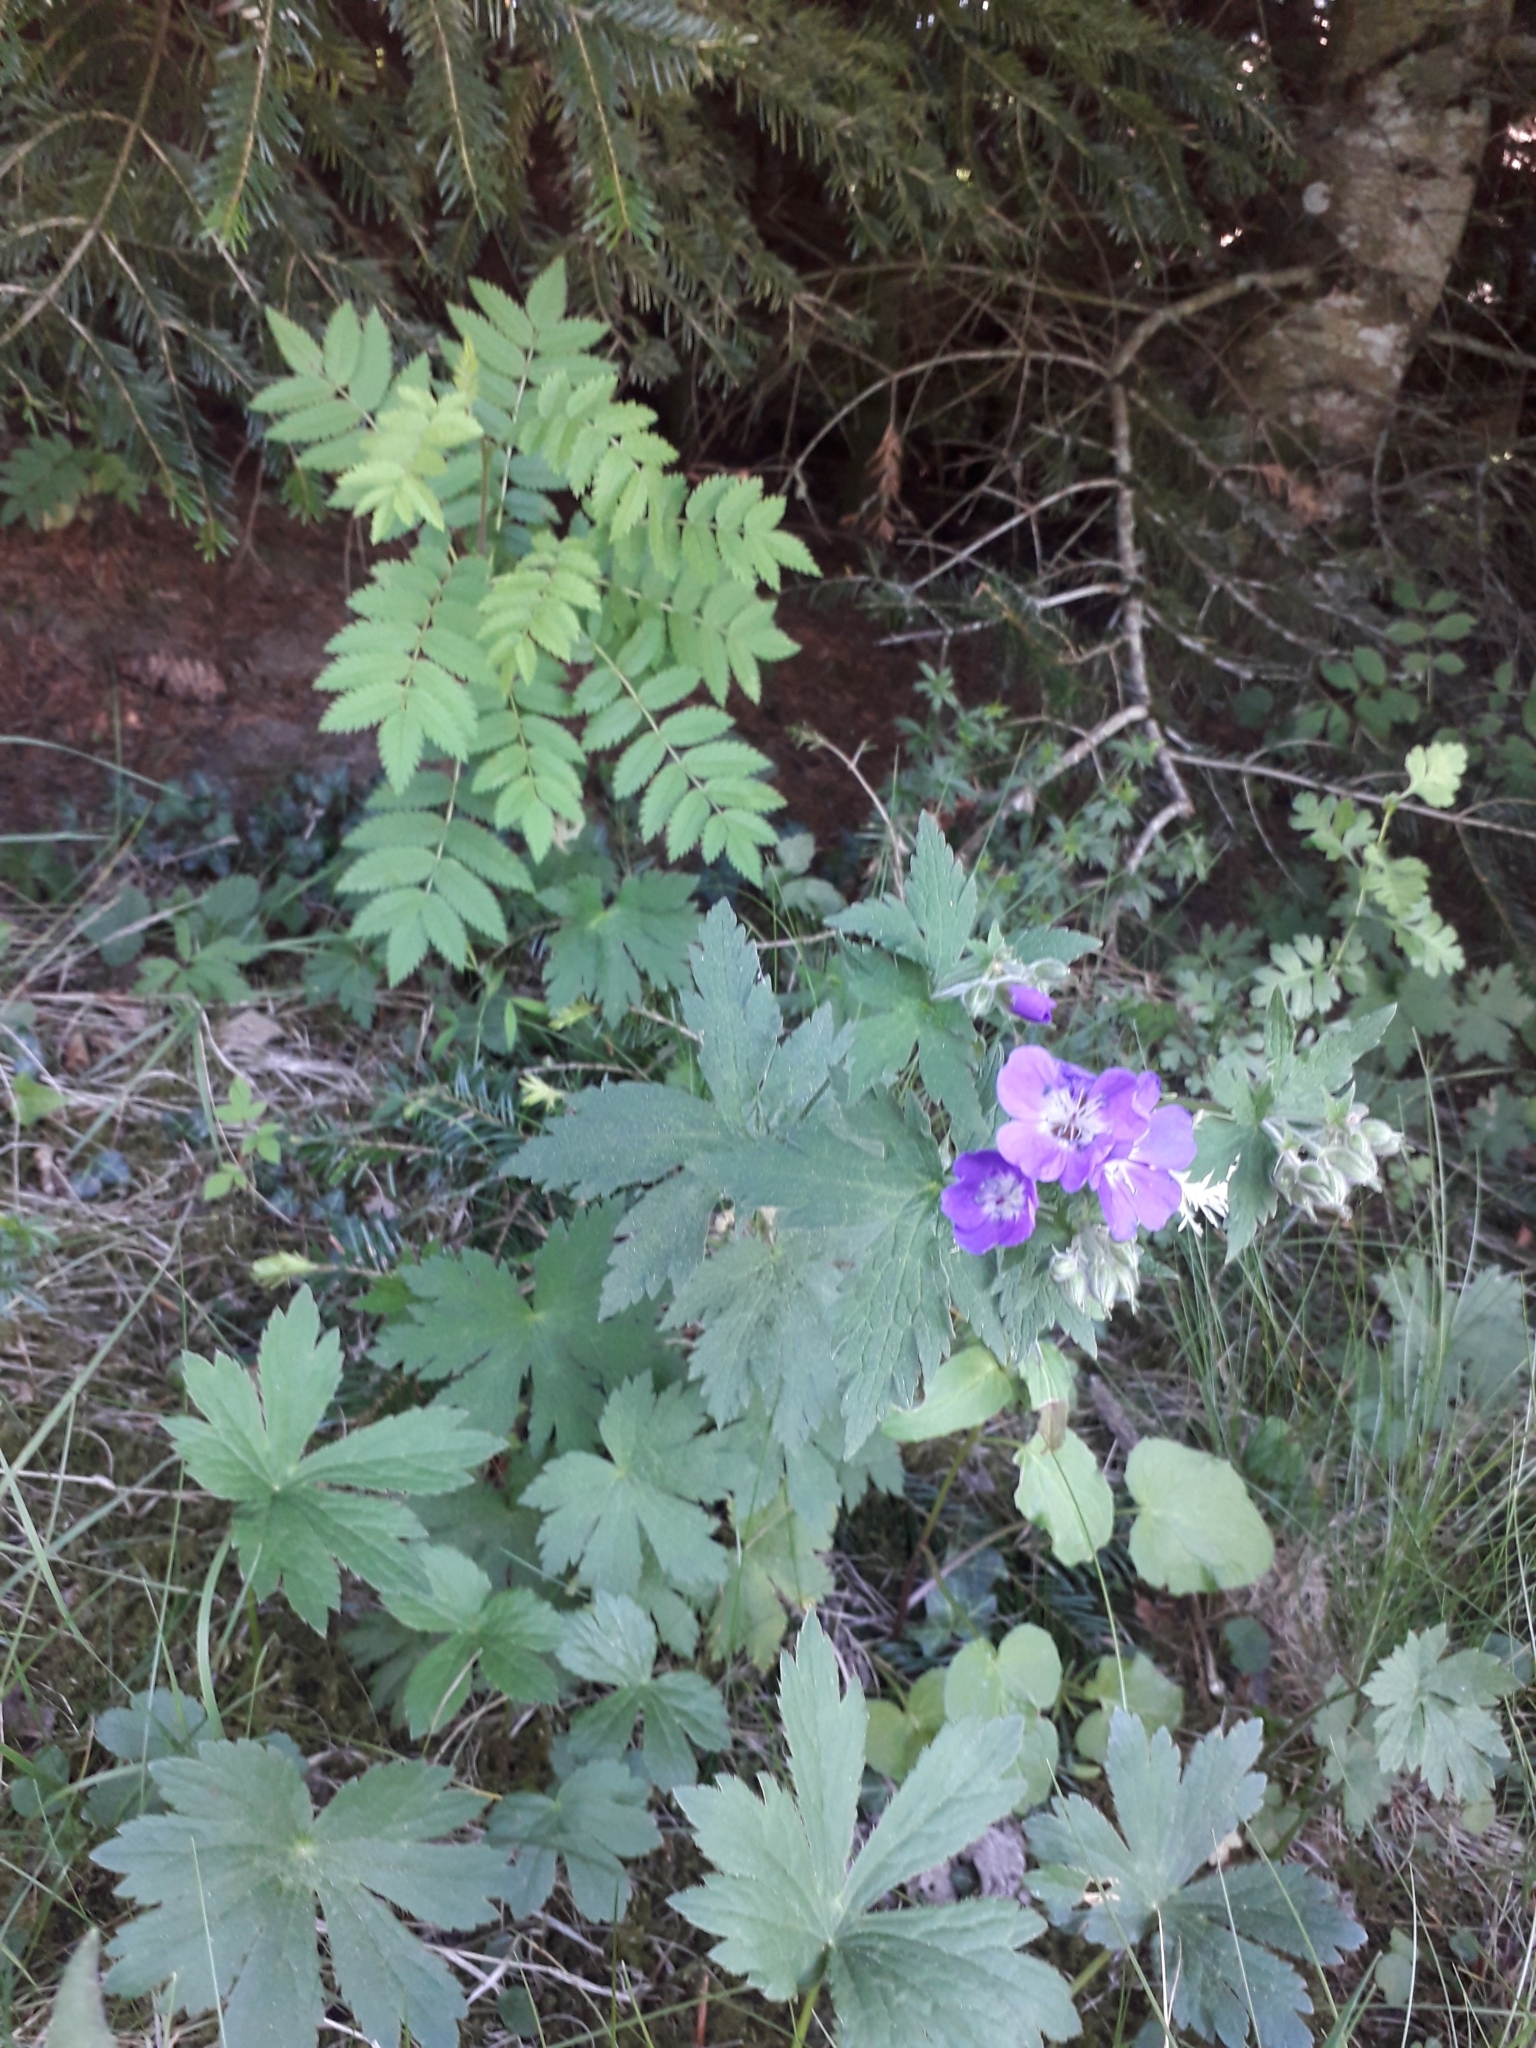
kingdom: Plantae
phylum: Tracheophyta
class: Magnoliopsida
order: Geraniales
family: Geraniaceae
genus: Geranium
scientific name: Geranium sylvaticum
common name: Wood crane's-bill
